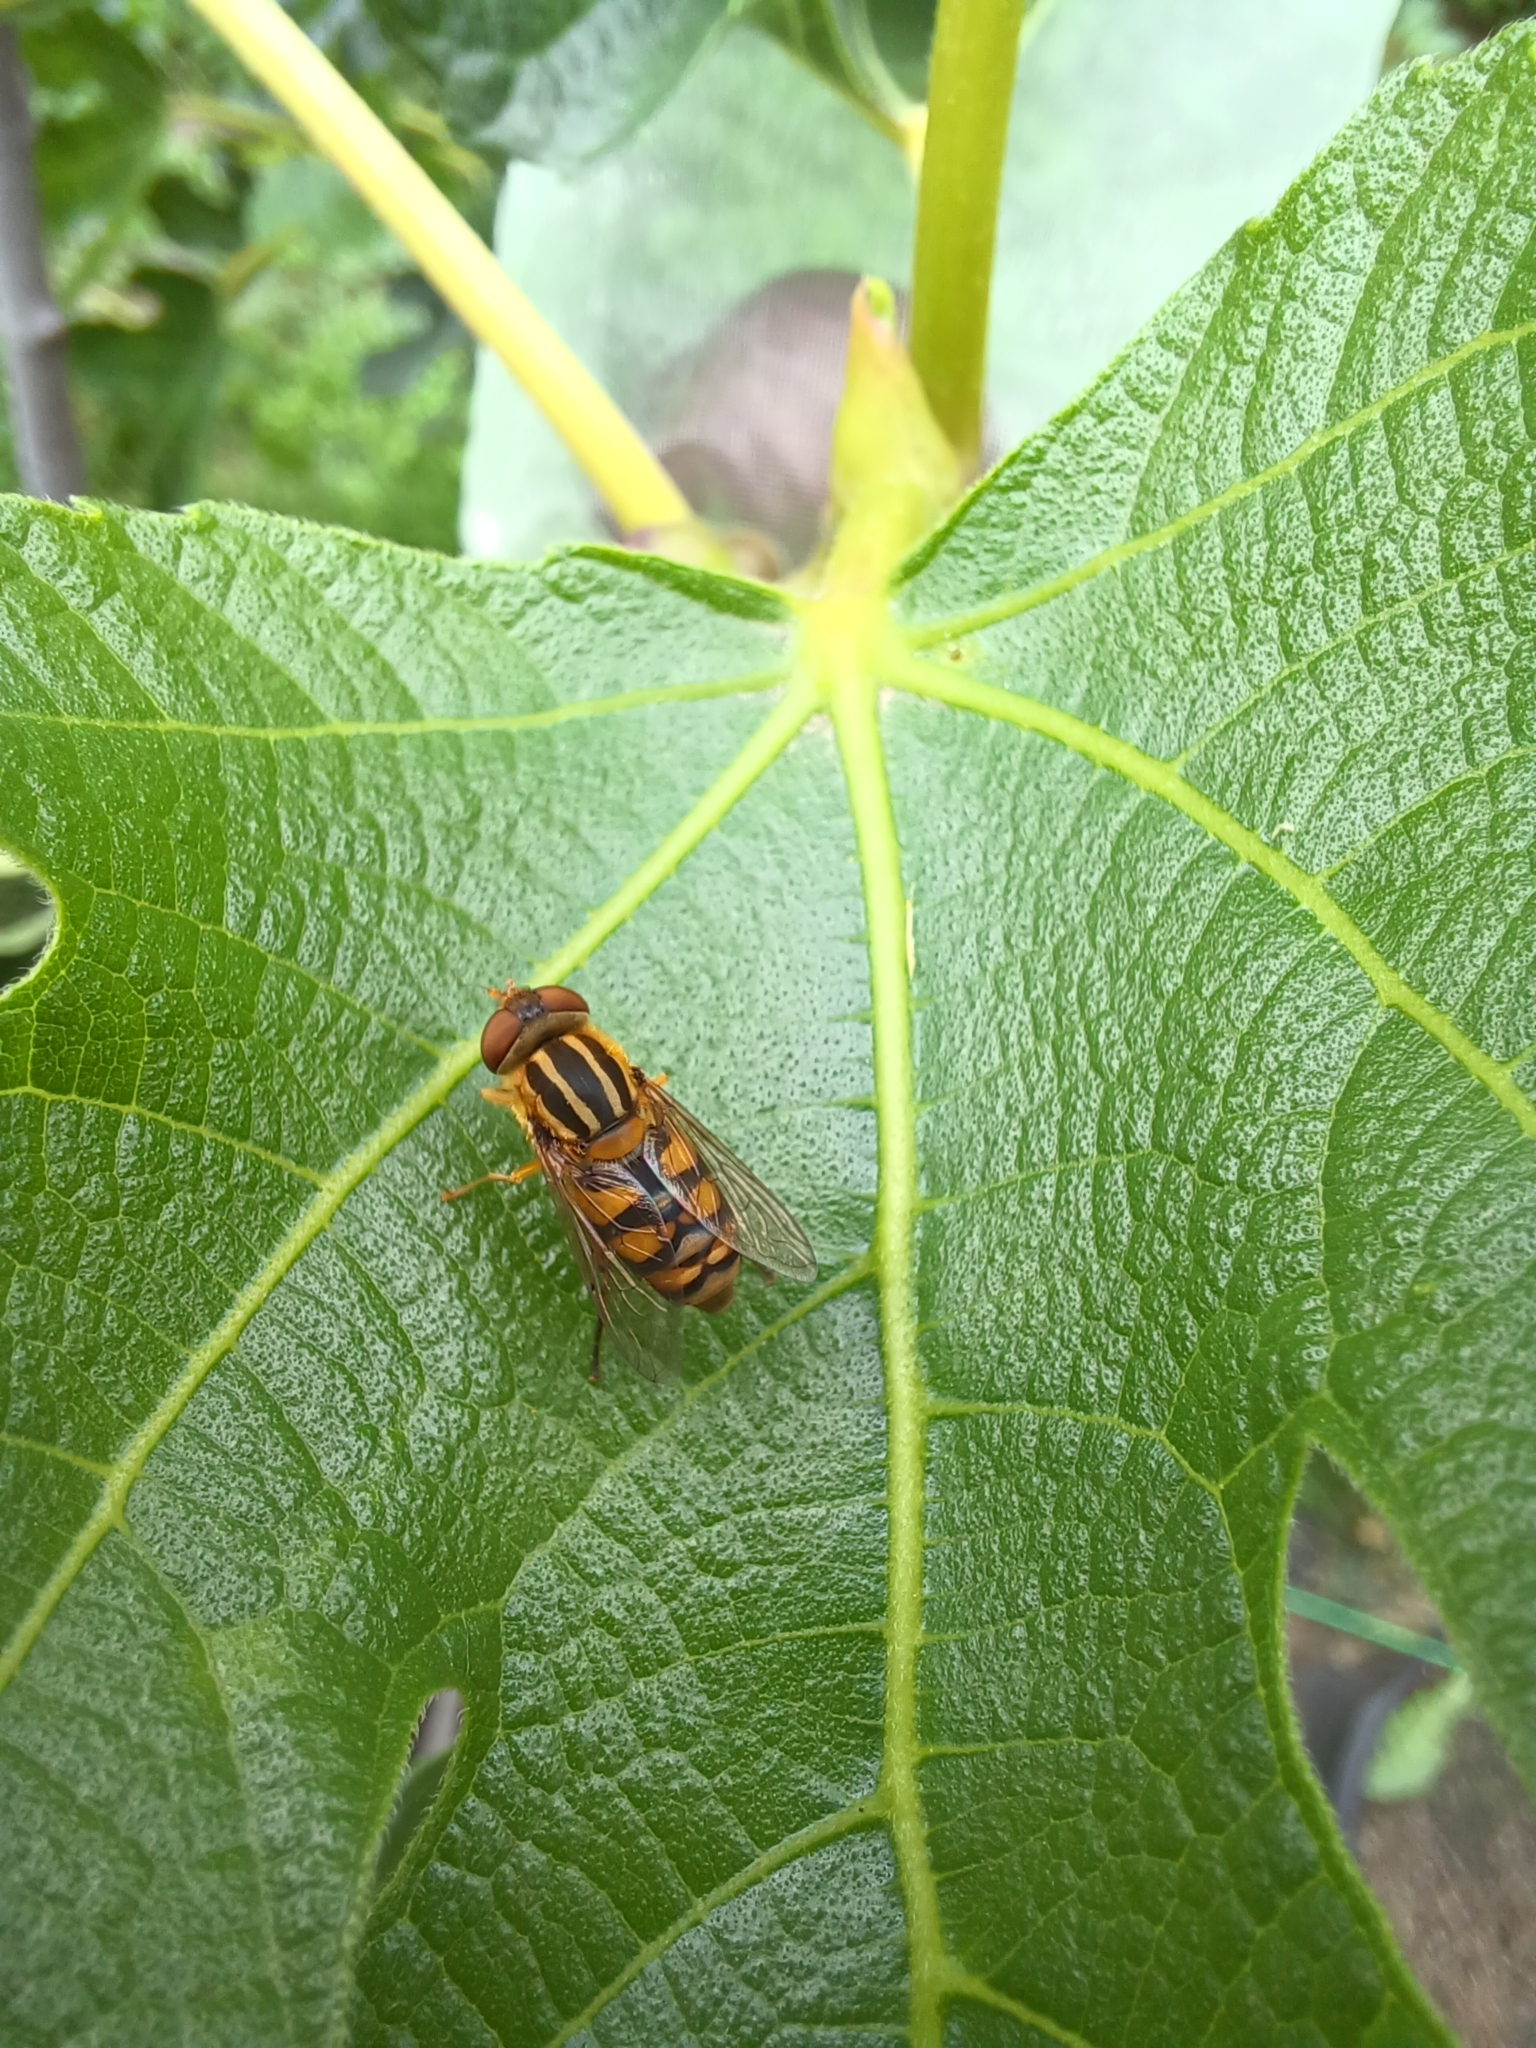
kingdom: Animalia
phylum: Arthropoda
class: Insecta
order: Diptera
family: Syrphidae
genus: Parhelophilus
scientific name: Parhelophilus integer
